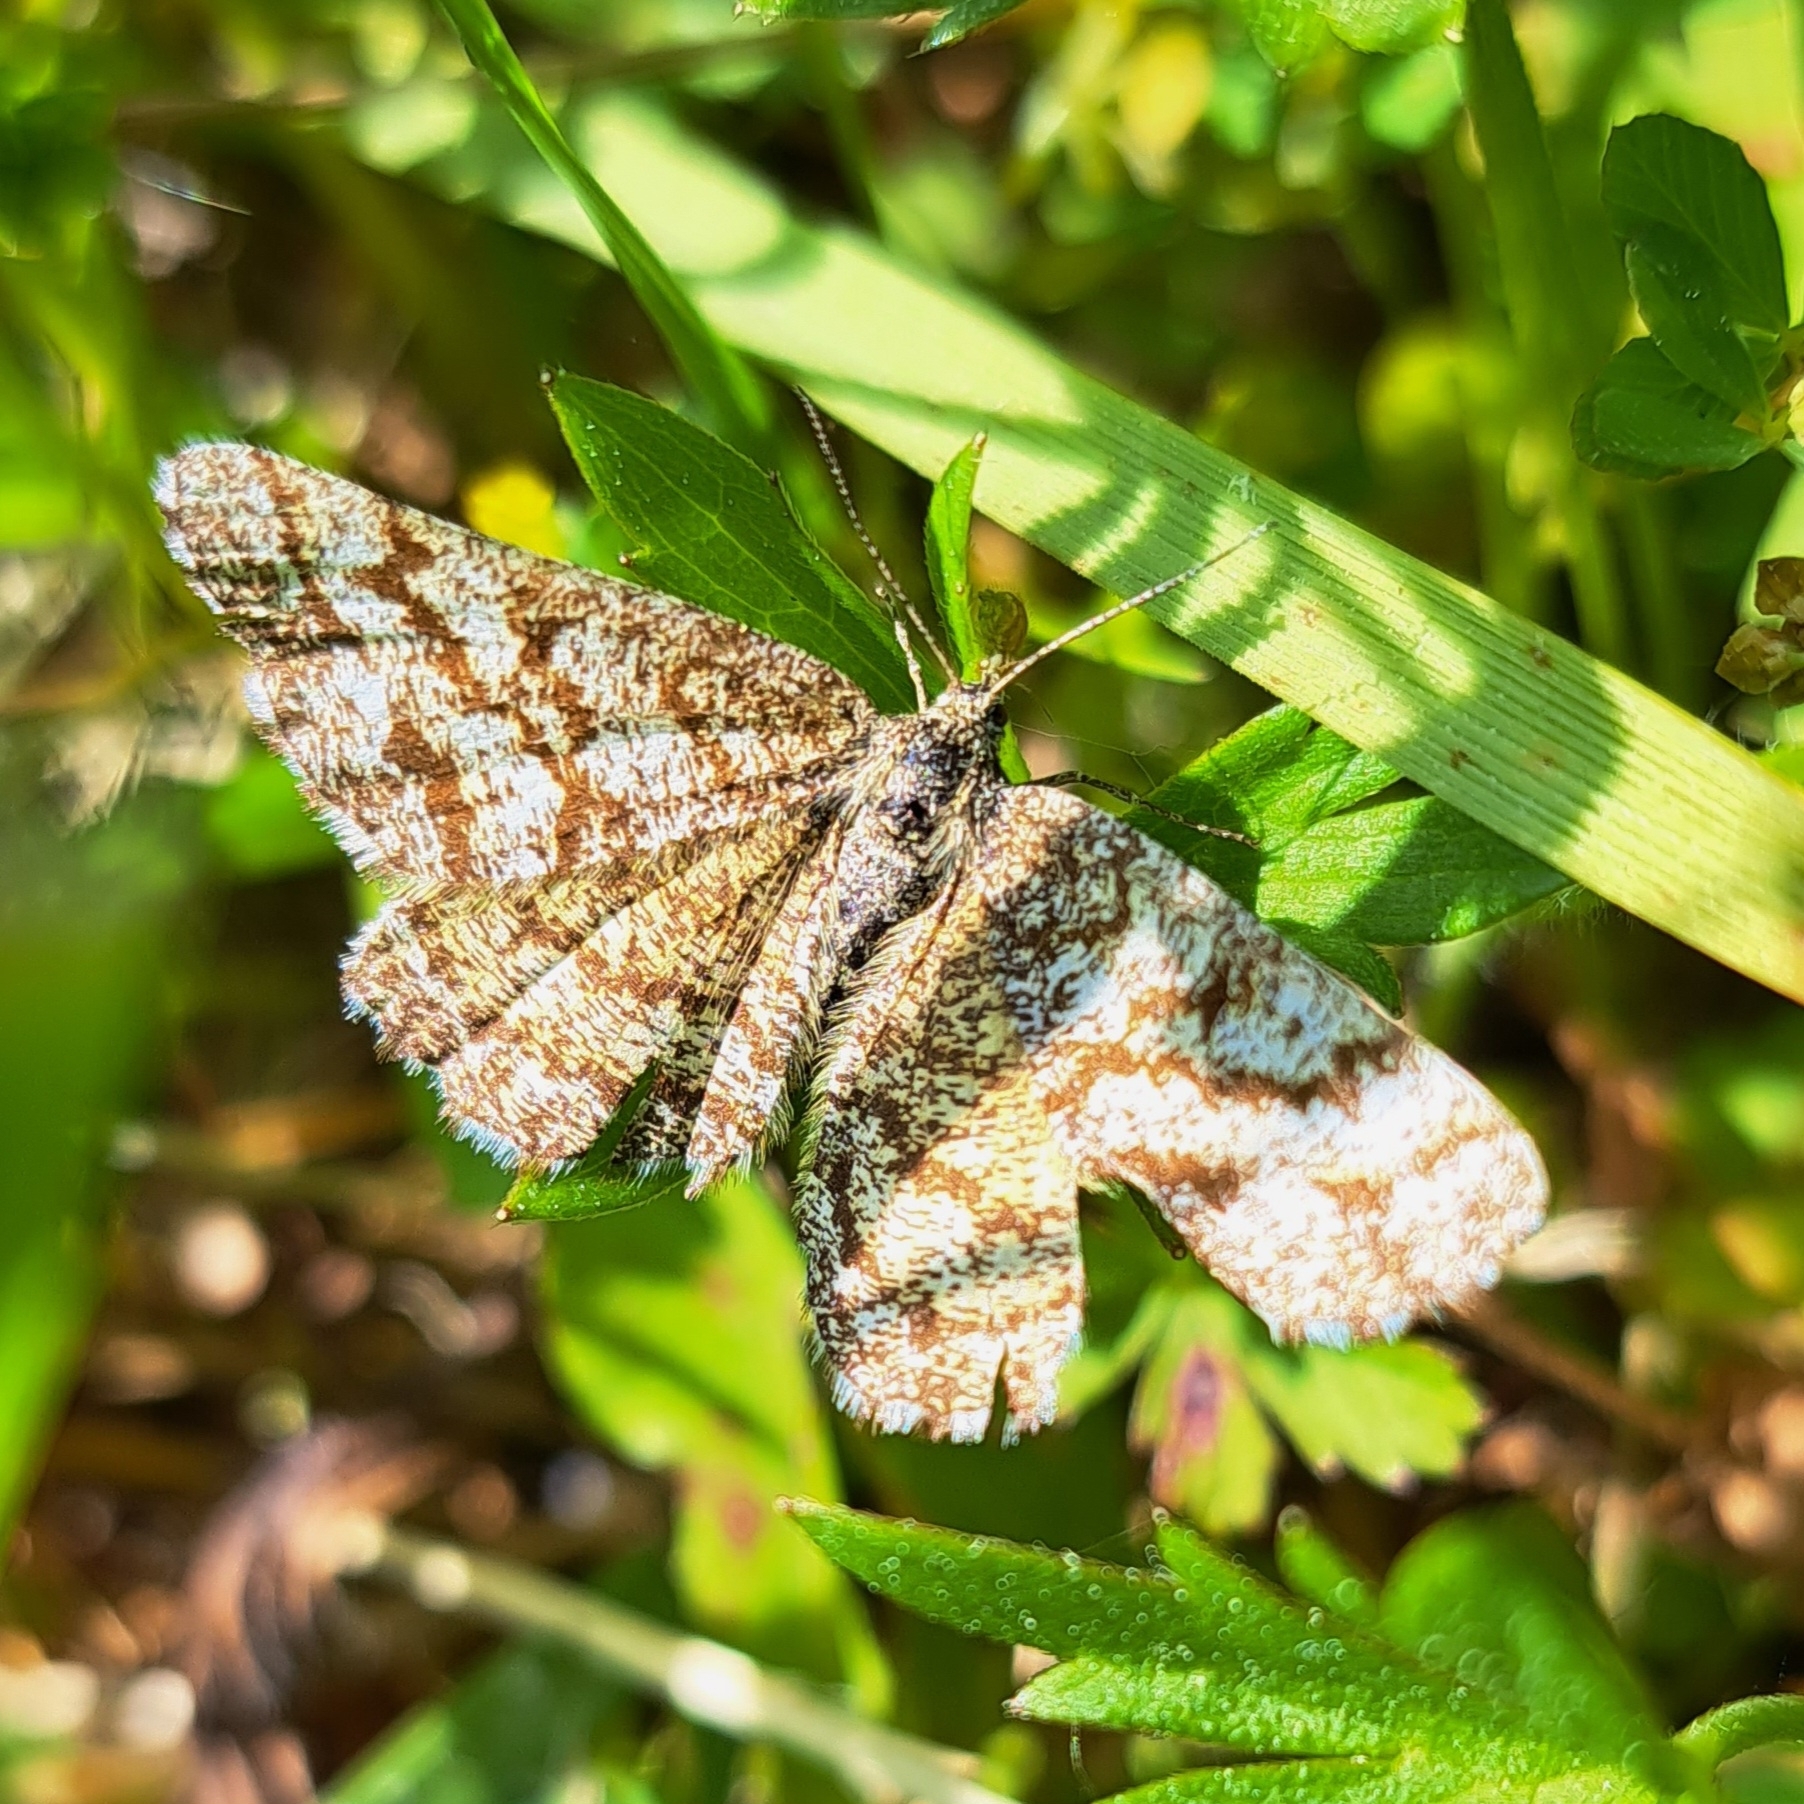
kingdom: Animalia
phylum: Arthropoda
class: Insecta
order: Lepidoptera
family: Geometridae
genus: Ematurga
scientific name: Ematurga atomaria
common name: Common heath
